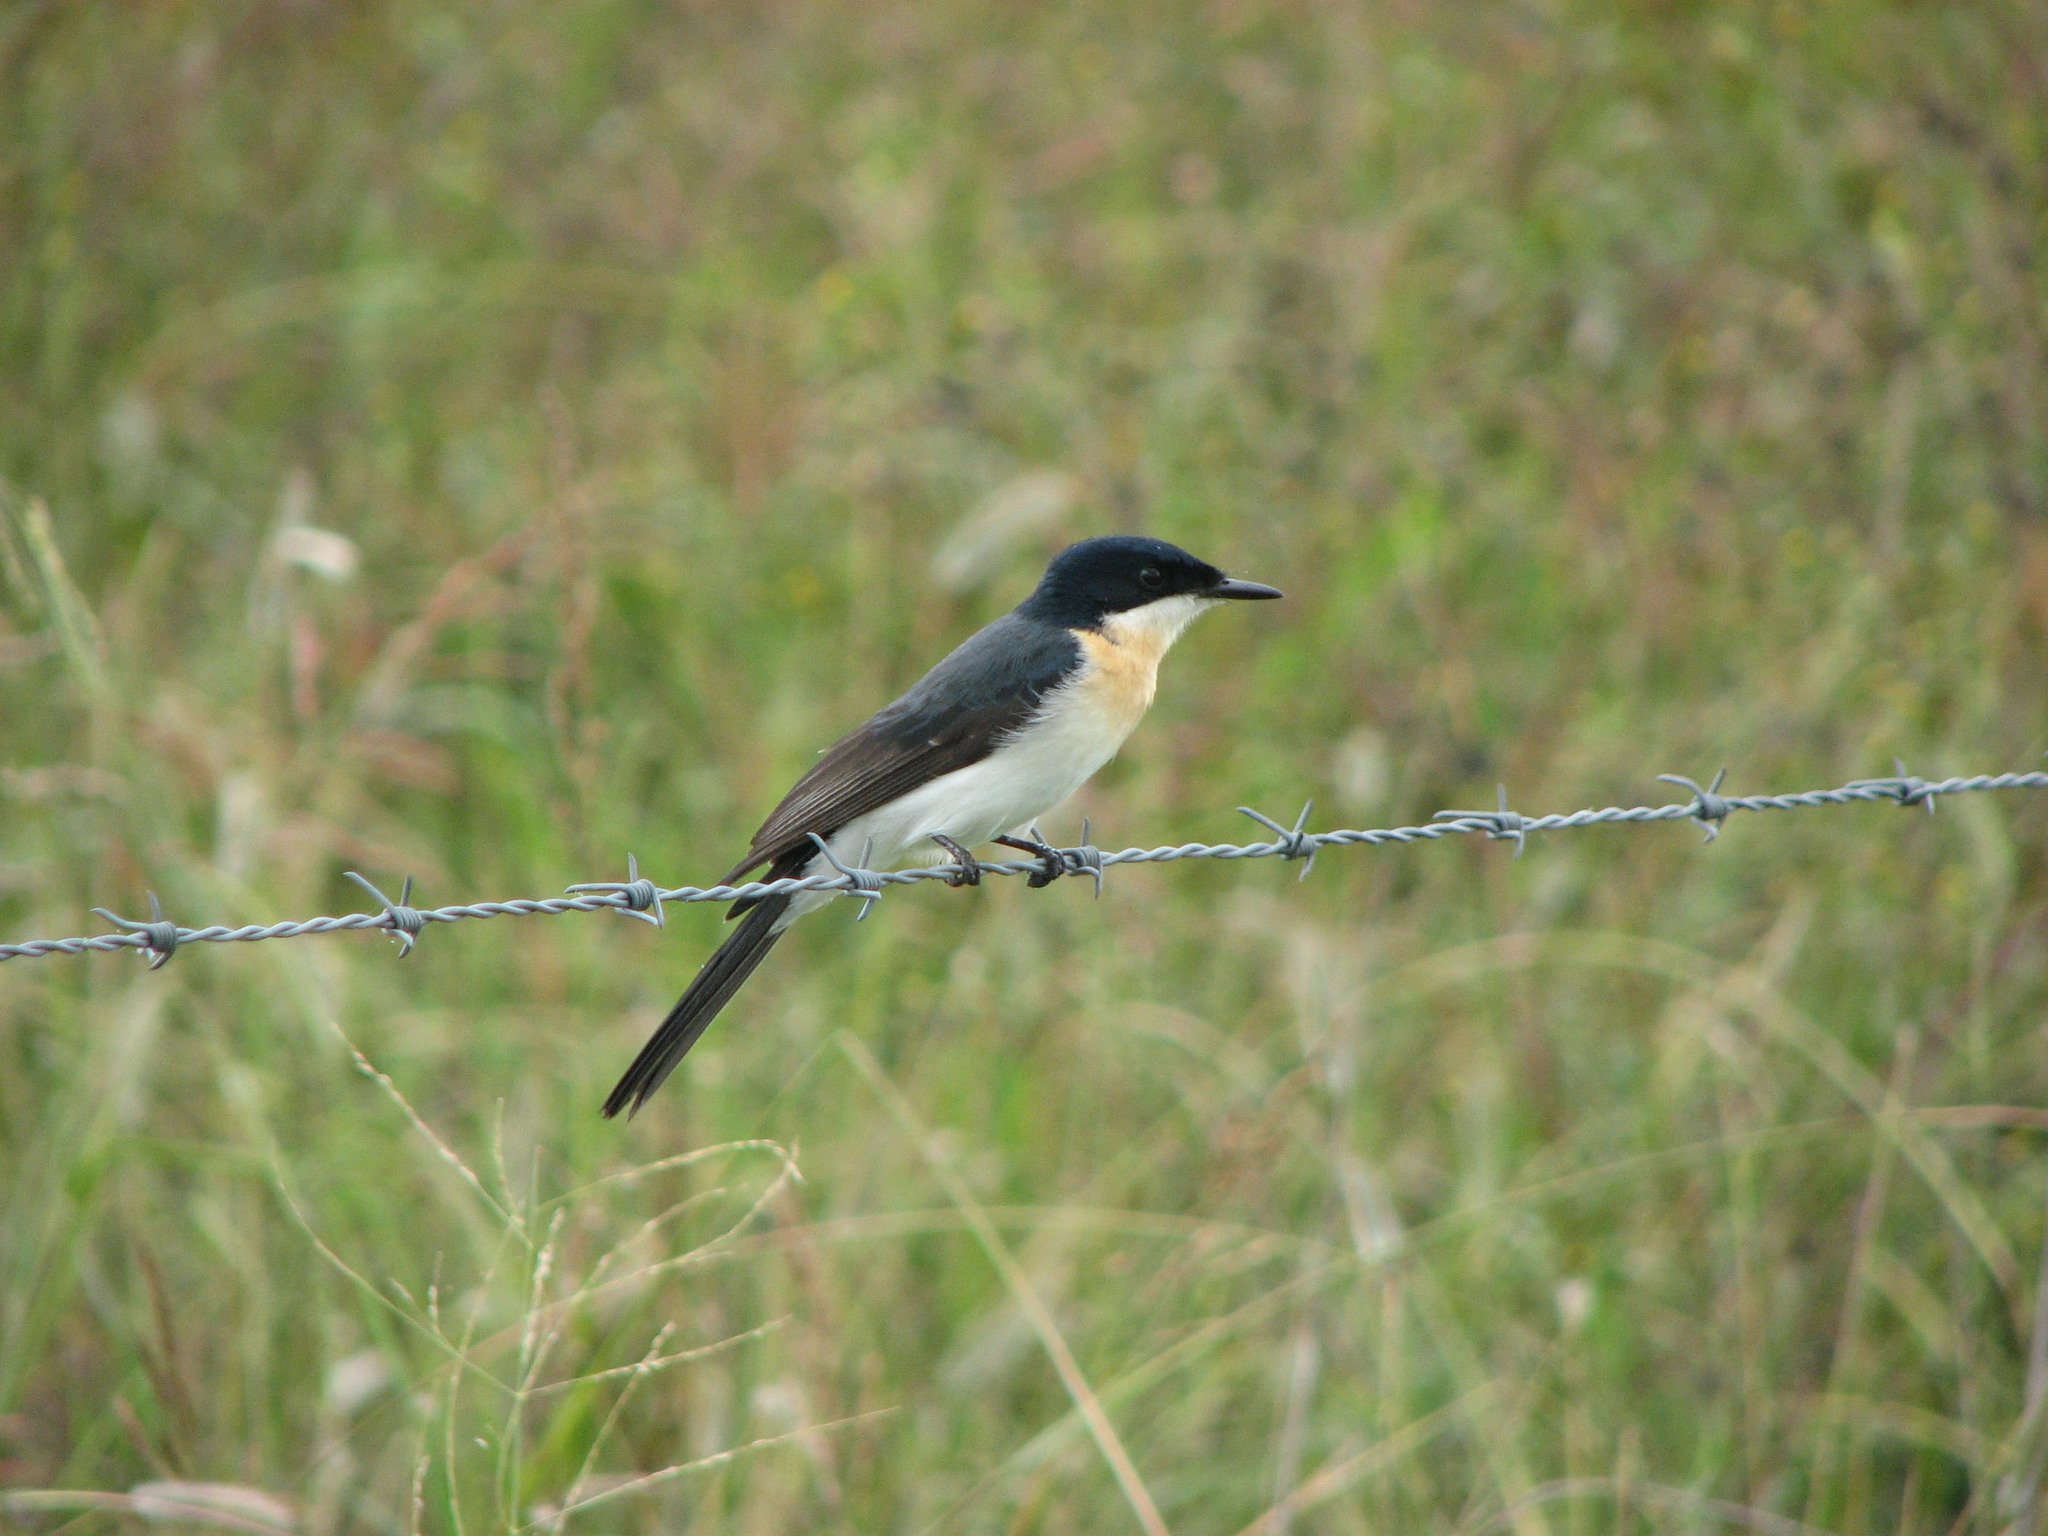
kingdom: Animalia
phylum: Chordata
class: Aves
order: Passeriformes
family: Monarchidae
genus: Myiagra
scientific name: Myiagra inquieta
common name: Restless flycatcher
